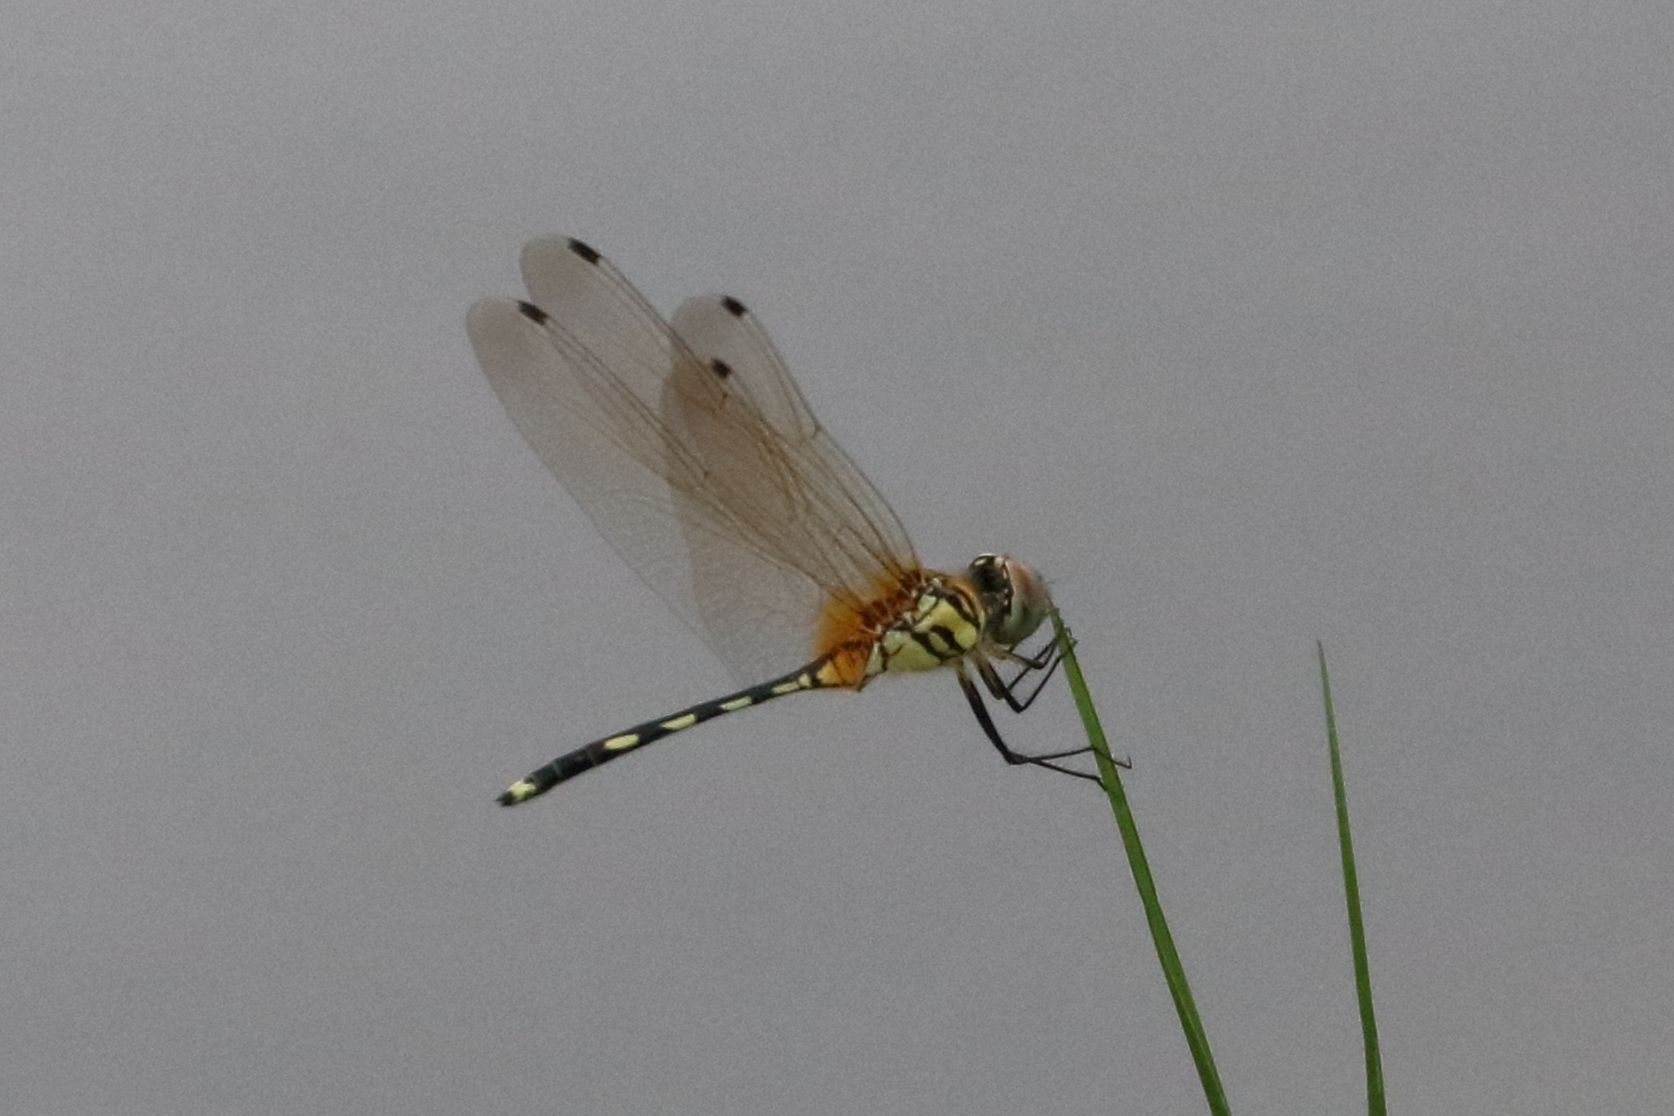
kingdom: Animalia
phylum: Arthropoda
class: Insecta
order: Odonata
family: Libellulidae
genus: Trithemis
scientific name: Trithemis pallidinervis
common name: Dancing dropwing
